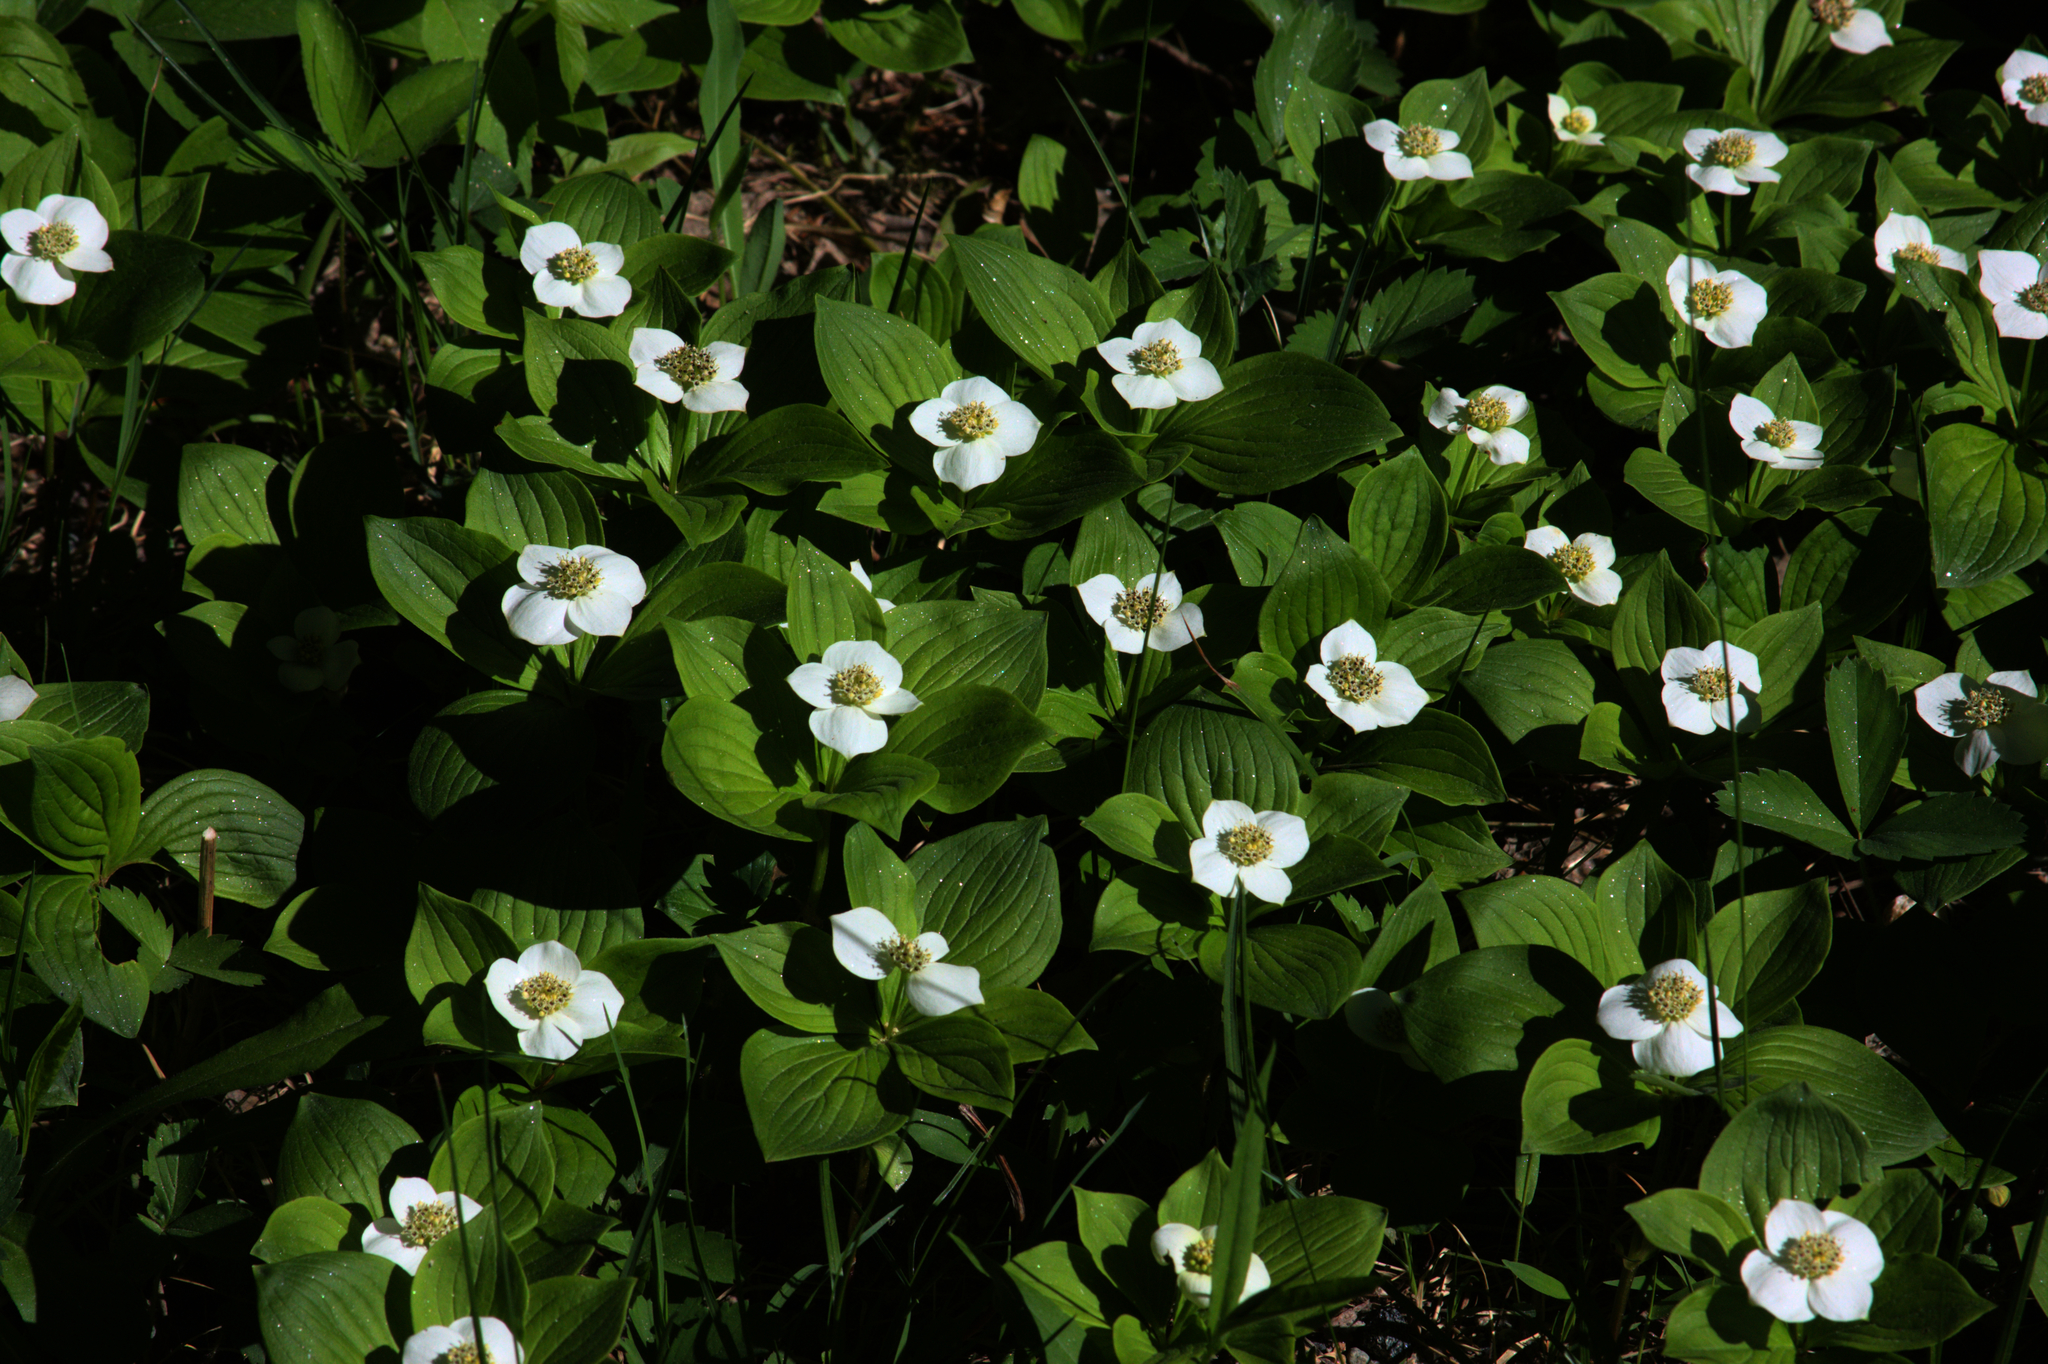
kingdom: Plantae
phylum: Tracheophyta
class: Magnoliopsida
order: Cornales
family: Cornaceae
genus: Cornus
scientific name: Cornus canadensis
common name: Creeping dogwood
